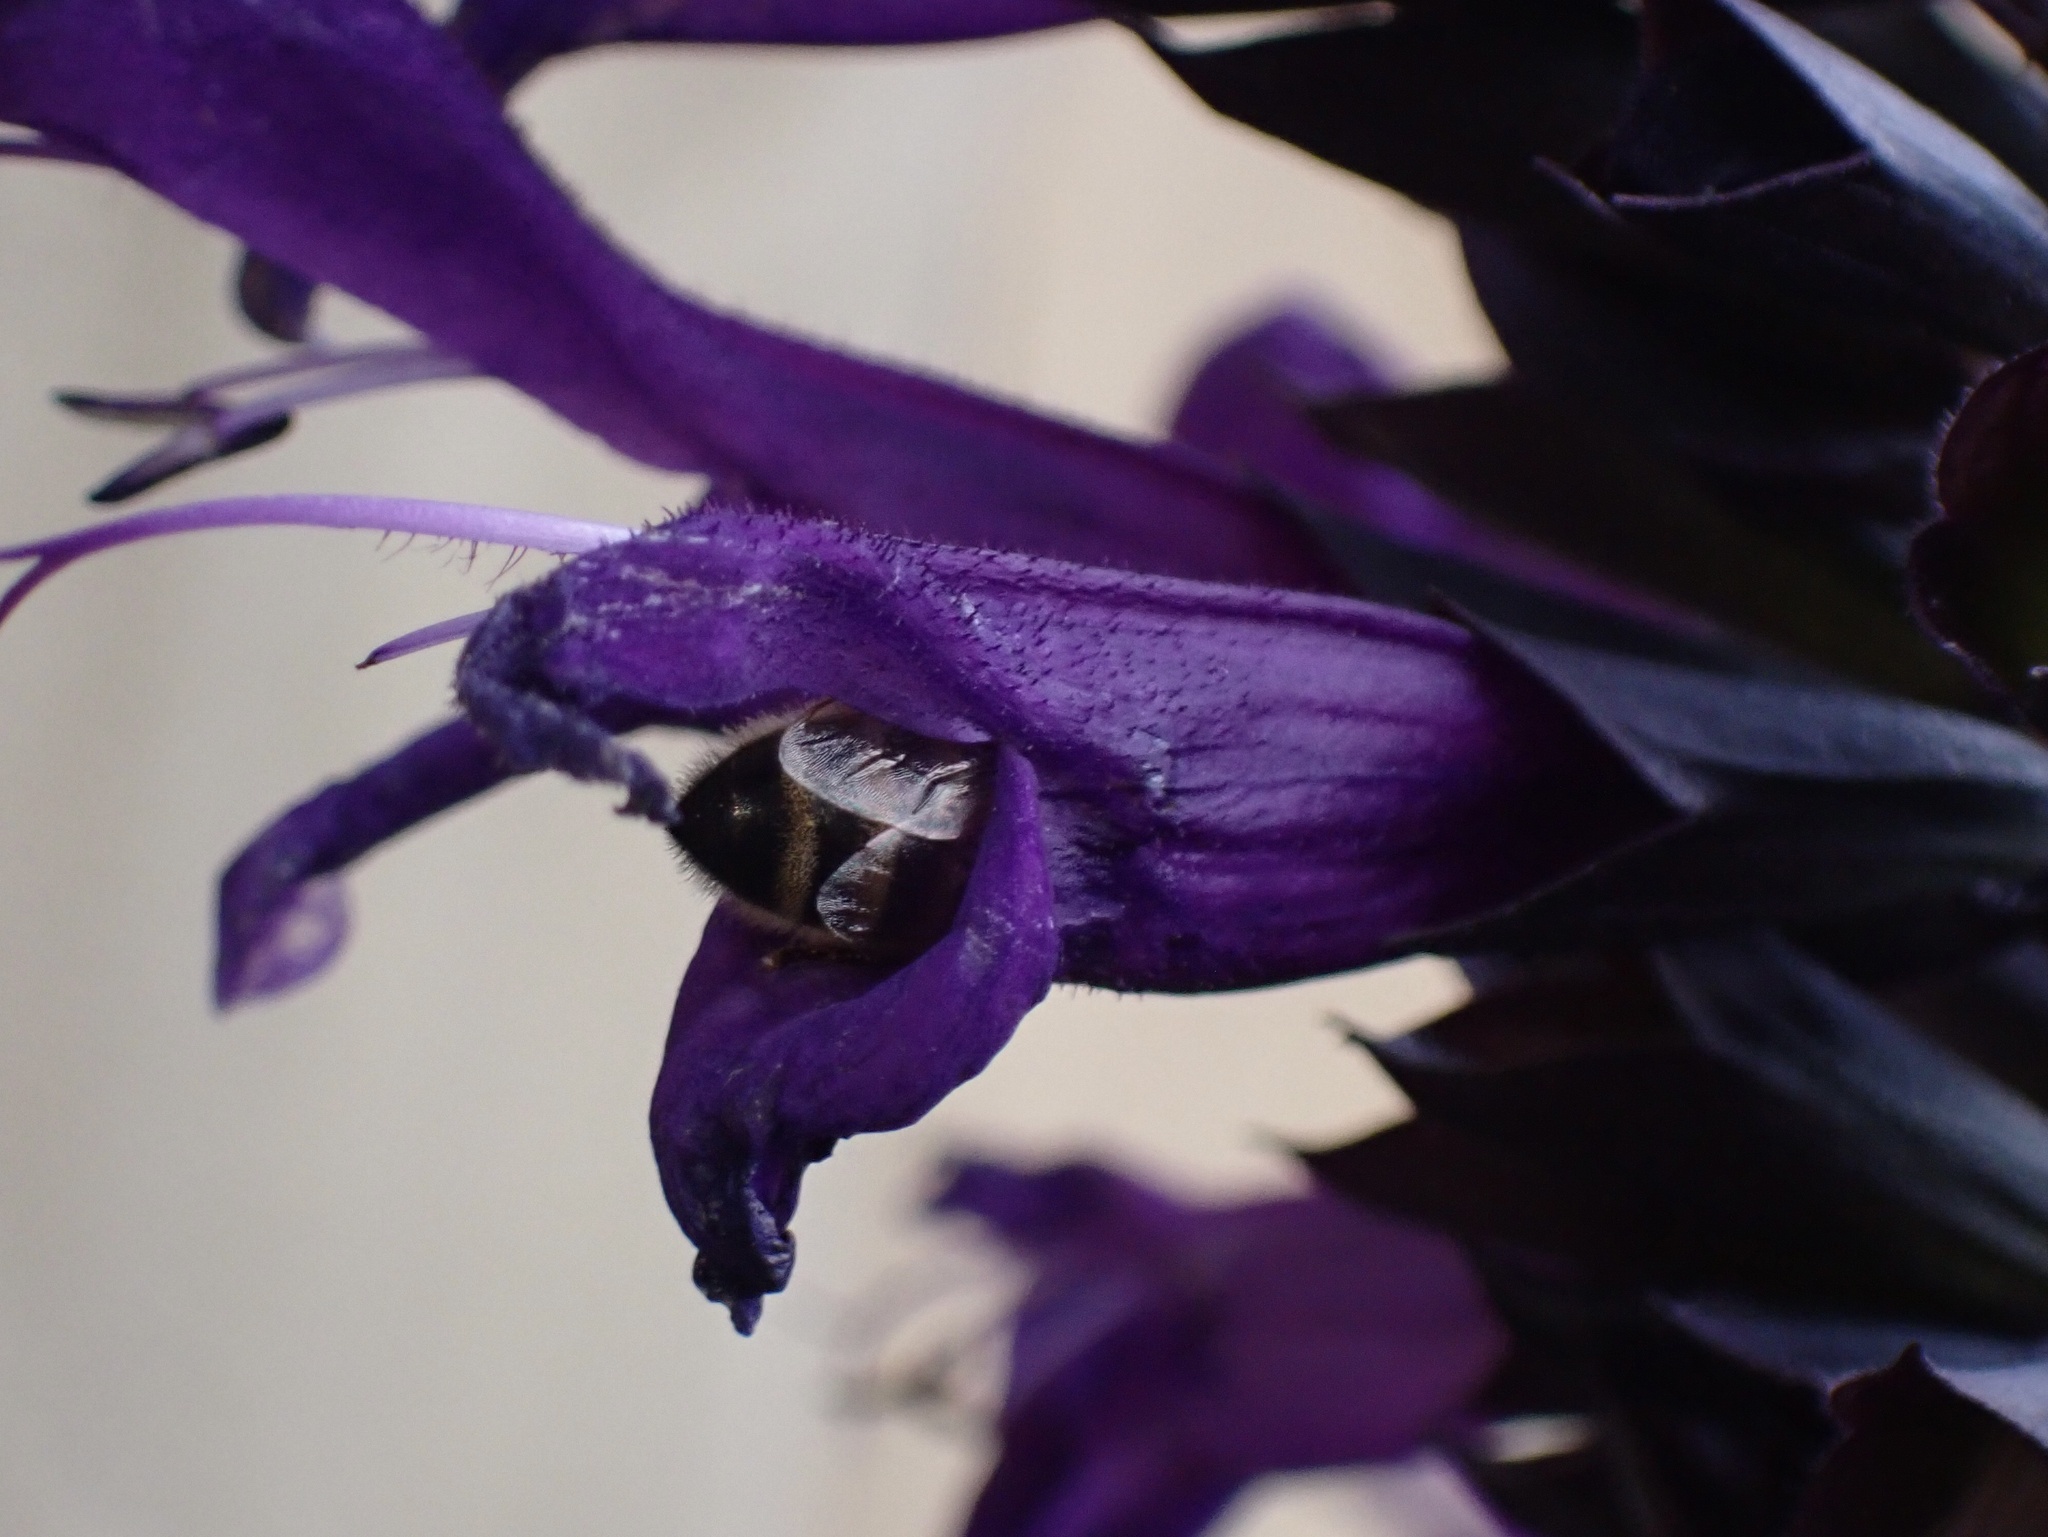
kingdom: Animalia
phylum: Arthropoda
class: Insecta
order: Hymenoptera
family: Apidae
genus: Apis
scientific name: Apis mellifera
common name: Honey bee
